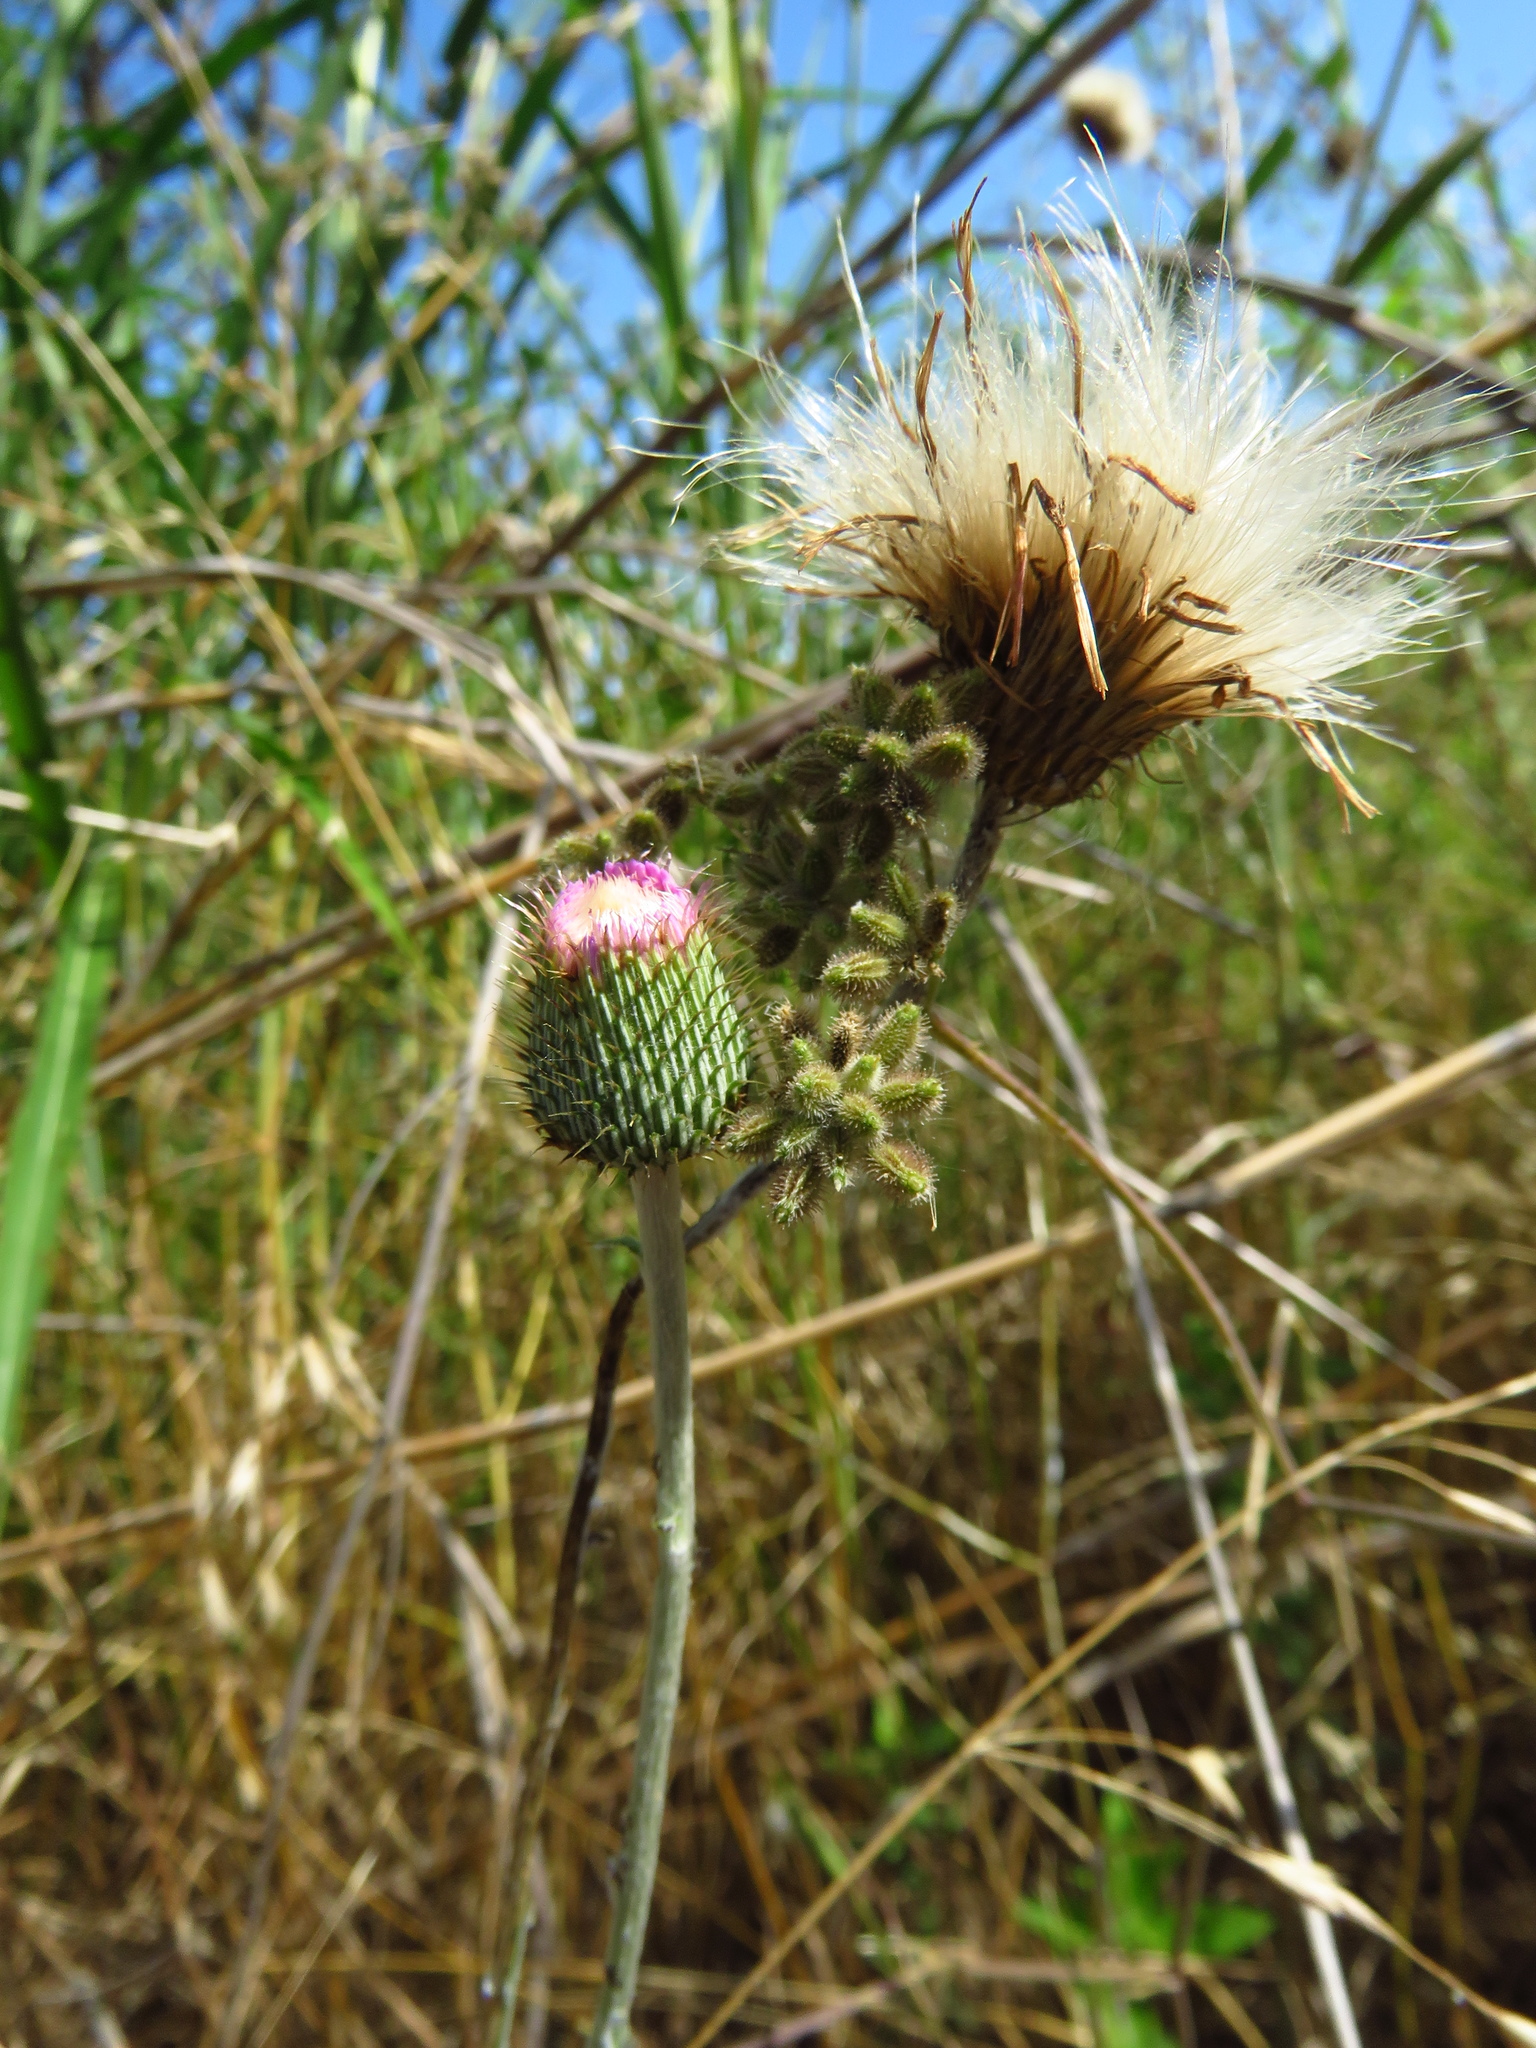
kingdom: Plantae
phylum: Tracheophyta
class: Magnoliopsida
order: Asterales
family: Asteraceae
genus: Cirsium
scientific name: Cirsium texanum
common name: Texas purple thistle
